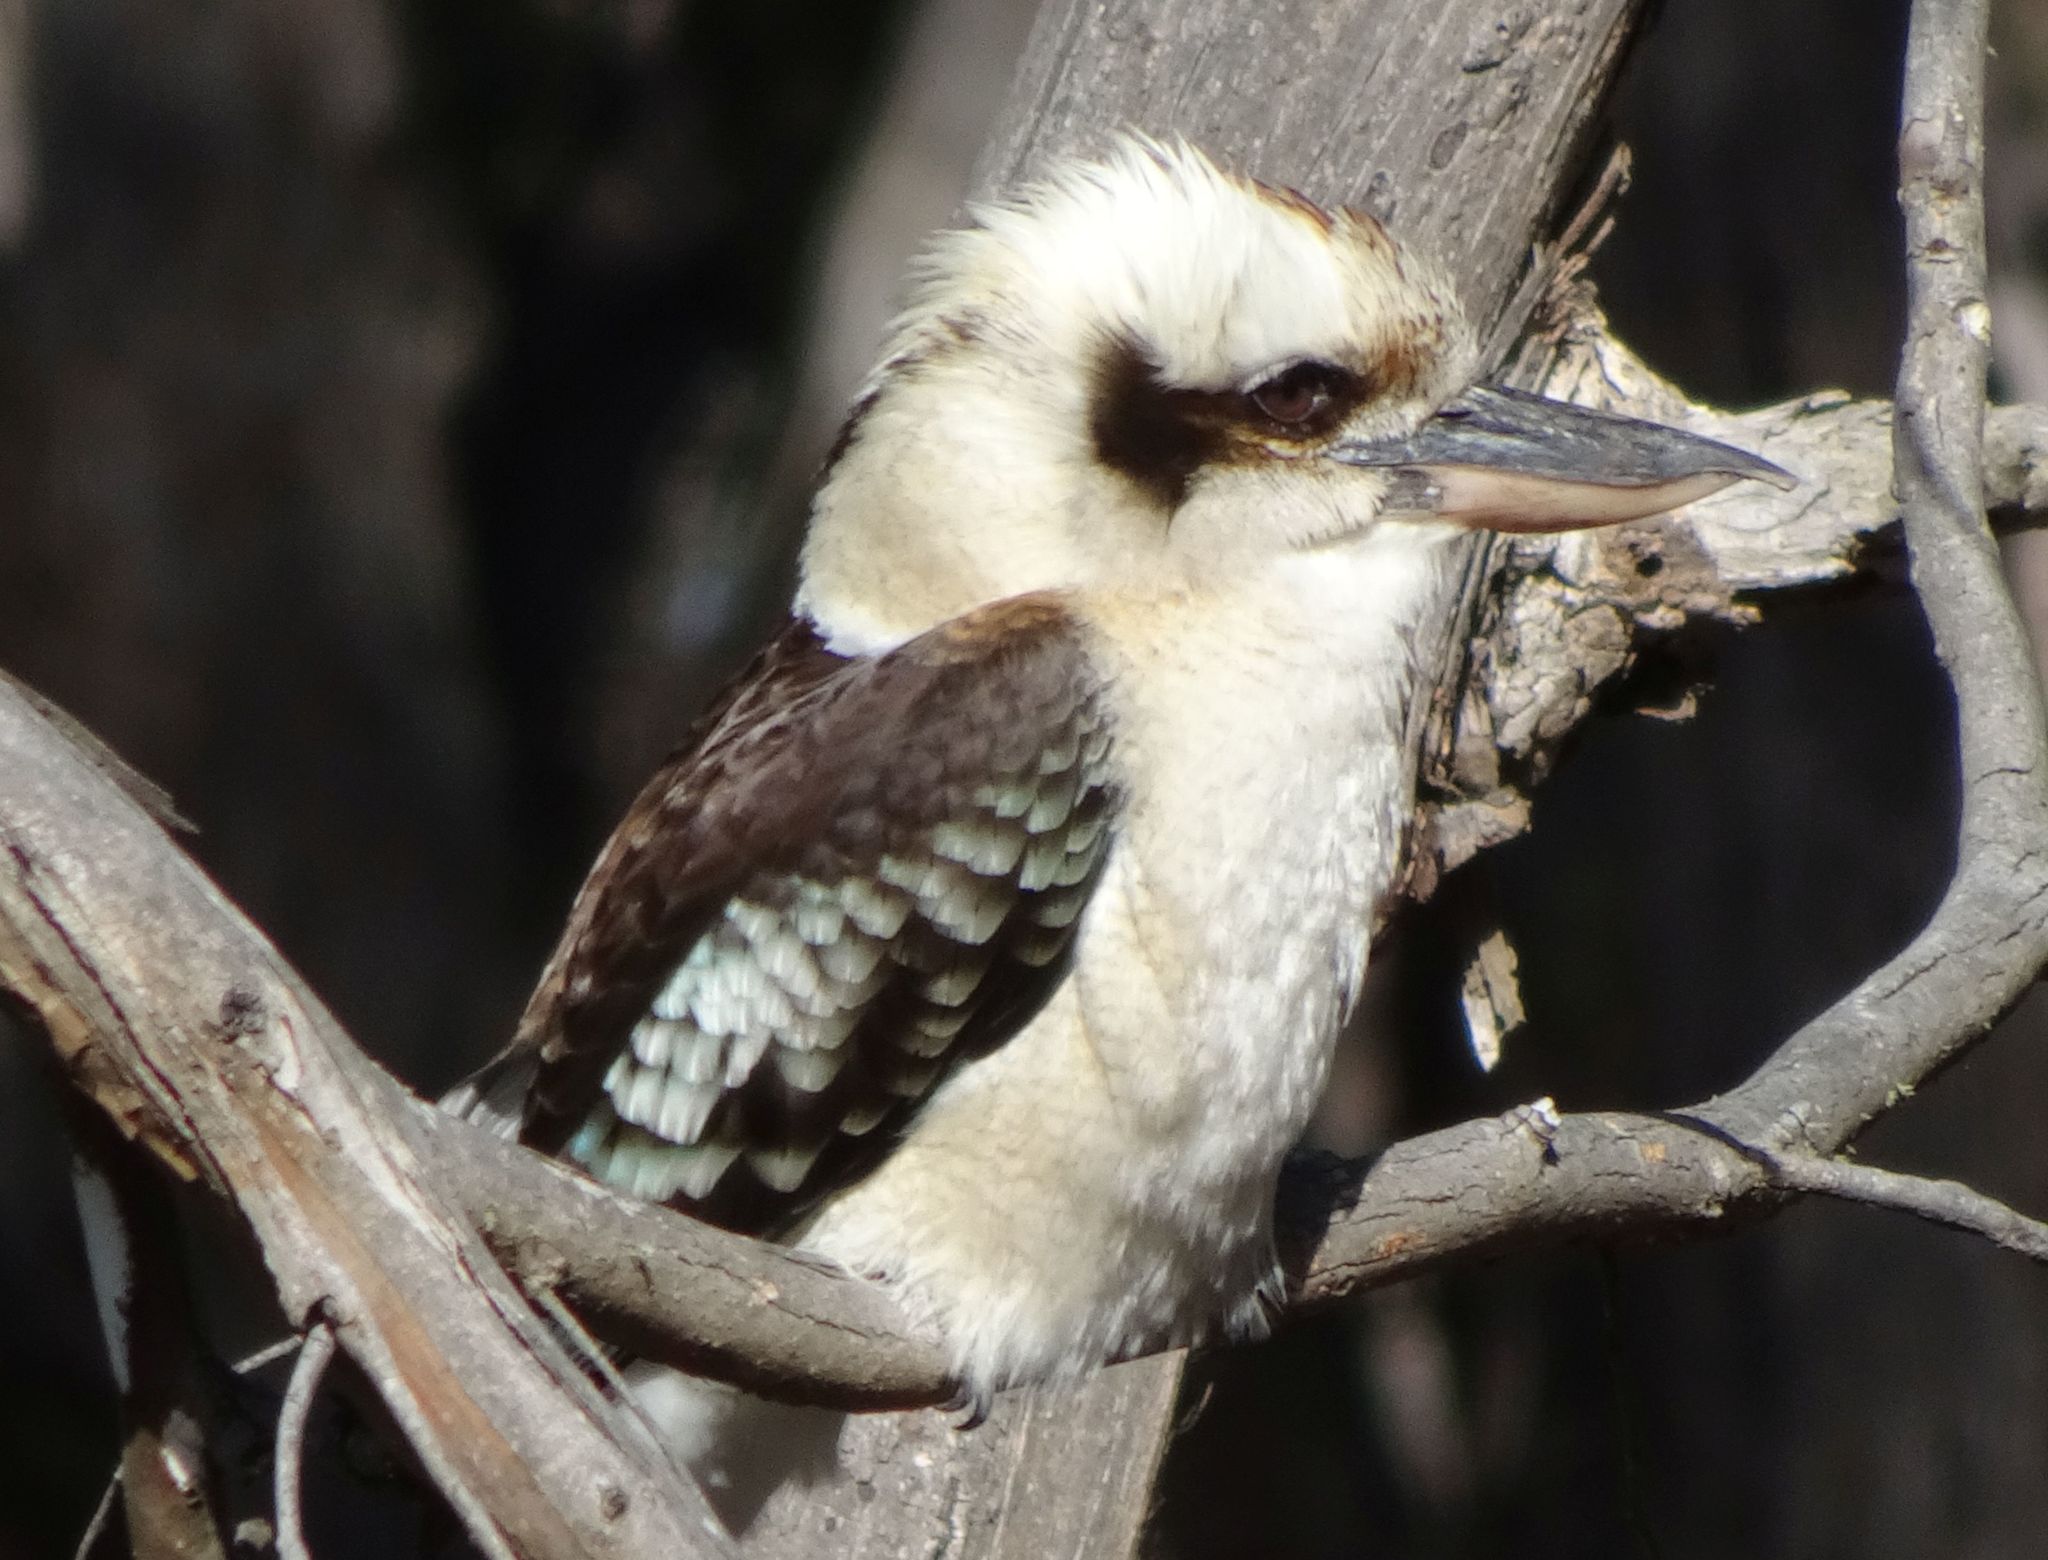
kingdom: Animalia
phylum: Chordata
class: Aves
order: Coraciiformes
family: Alcedinidae
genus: Dacelo
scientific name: Dacelo novaeguineae
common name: Laughing kookaburra
